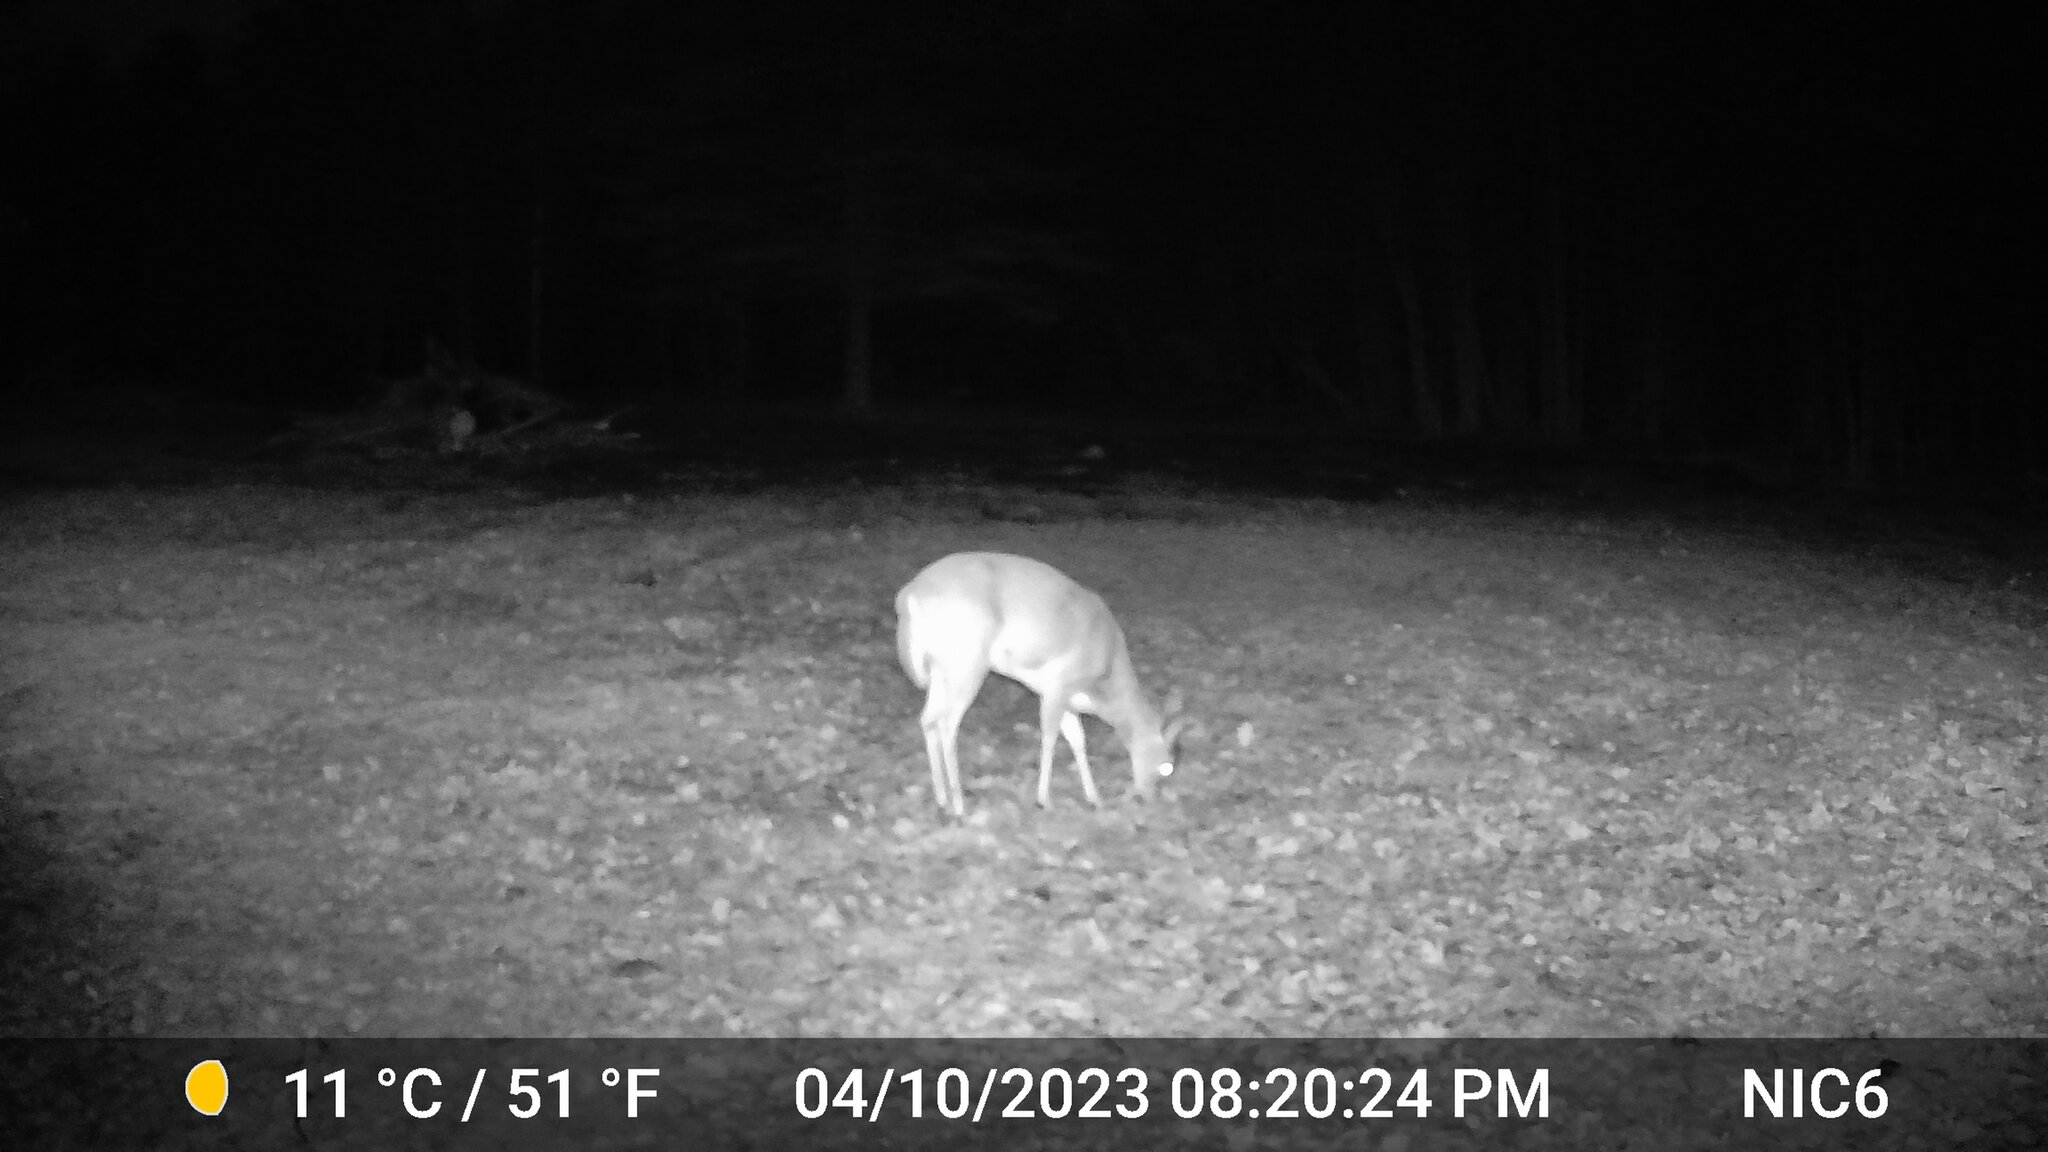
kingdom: Animalia
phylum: Chordata
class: Mammalia
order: Artiodactyla
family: Cervidae
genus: Odocoileus
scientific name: Odocoileus virginianus
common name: White-tailed deer
